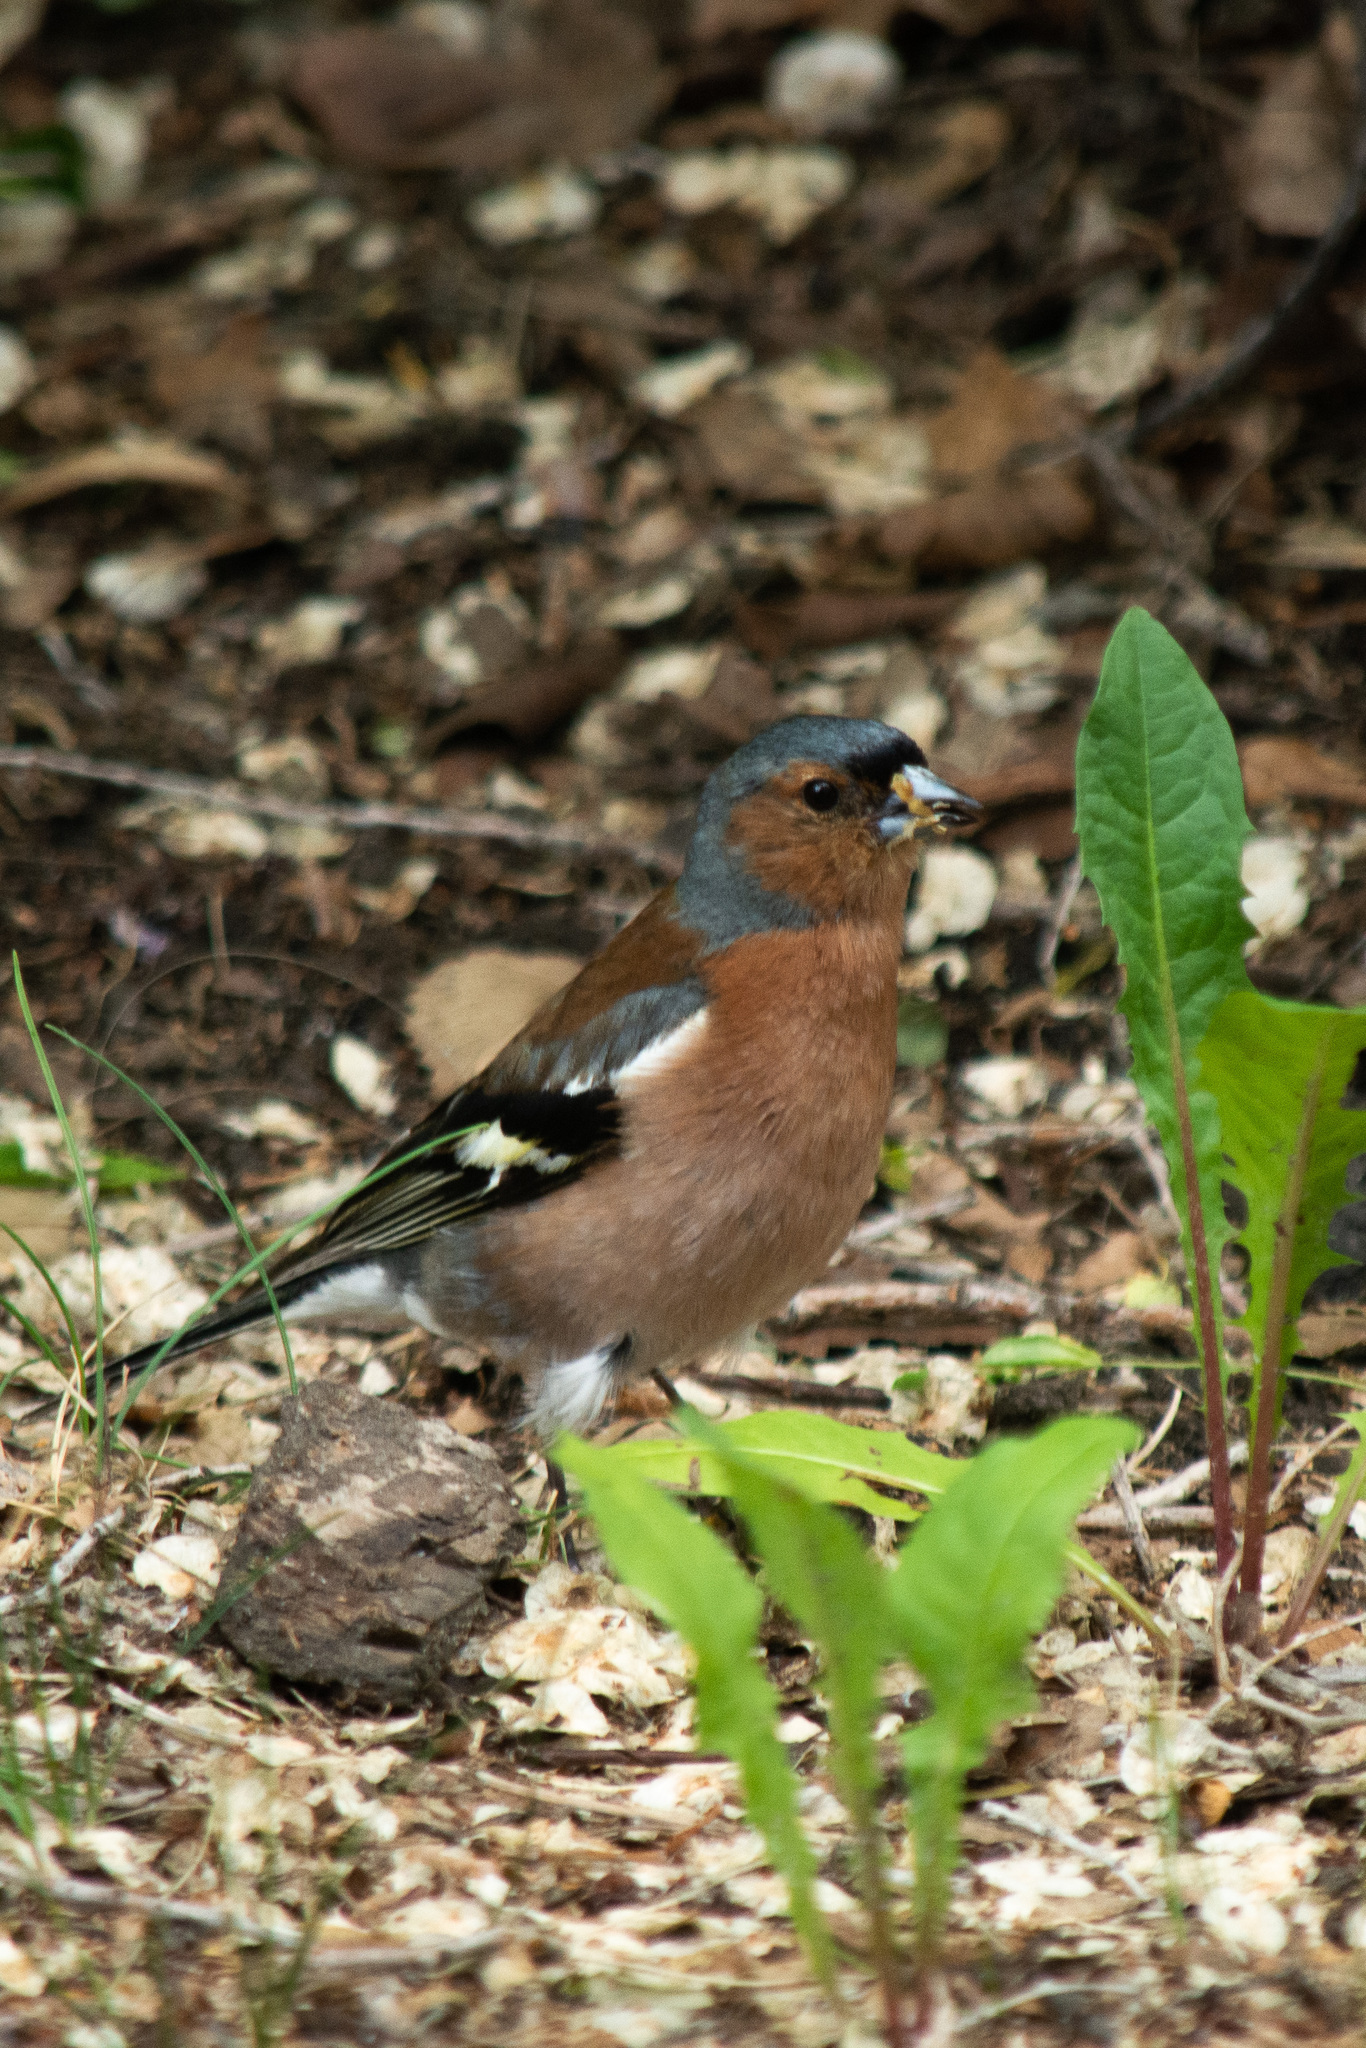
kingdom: Animalia
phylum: Chordata
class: Aves
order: Passeriformes
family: Fringillidae
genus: Fringilla
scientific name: Fringilla coelebs
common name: Common chaffinch
